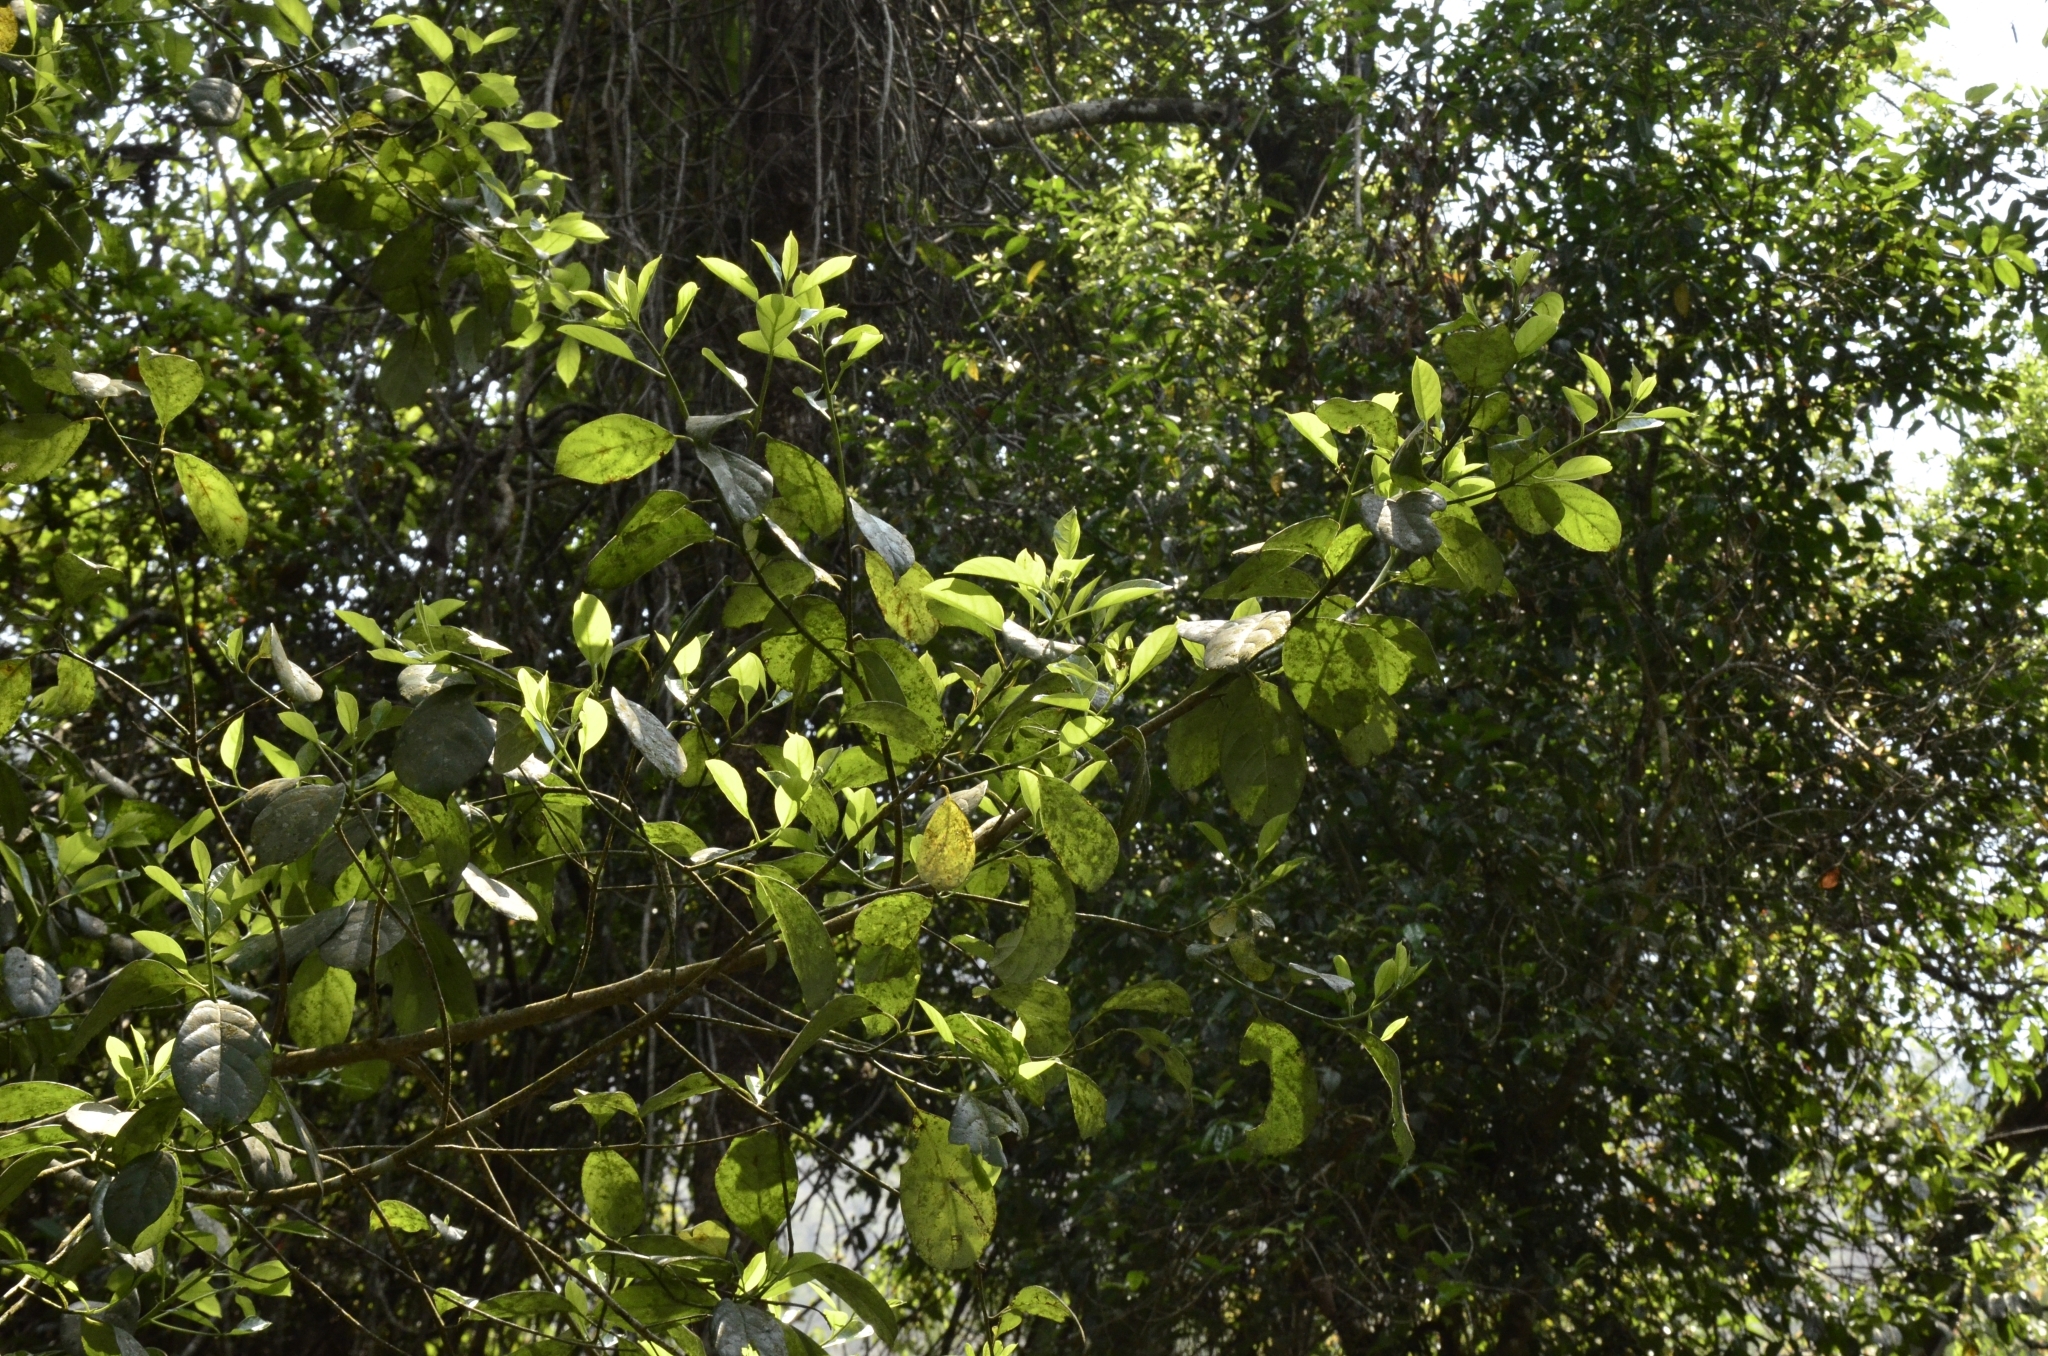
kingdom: Plantae
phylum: Tracheophyta
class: Magnoliopsida
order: Cornales
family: Nyssaceae
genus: Mastixia
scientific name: Mastixia arborea
